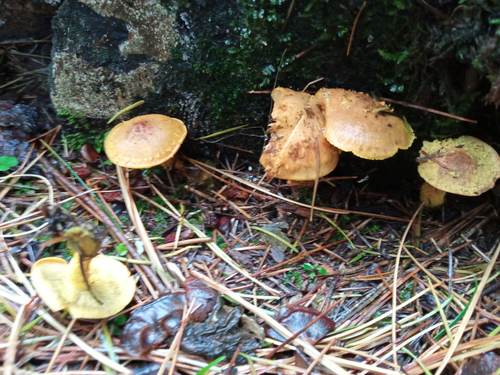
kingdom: Fungi
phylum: Basidiomycota
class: Agaricomycetes
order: Agaricales
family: Strophariaceae
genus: Pholiota
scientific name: Pholiota flammans
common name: Flaming scalycap
